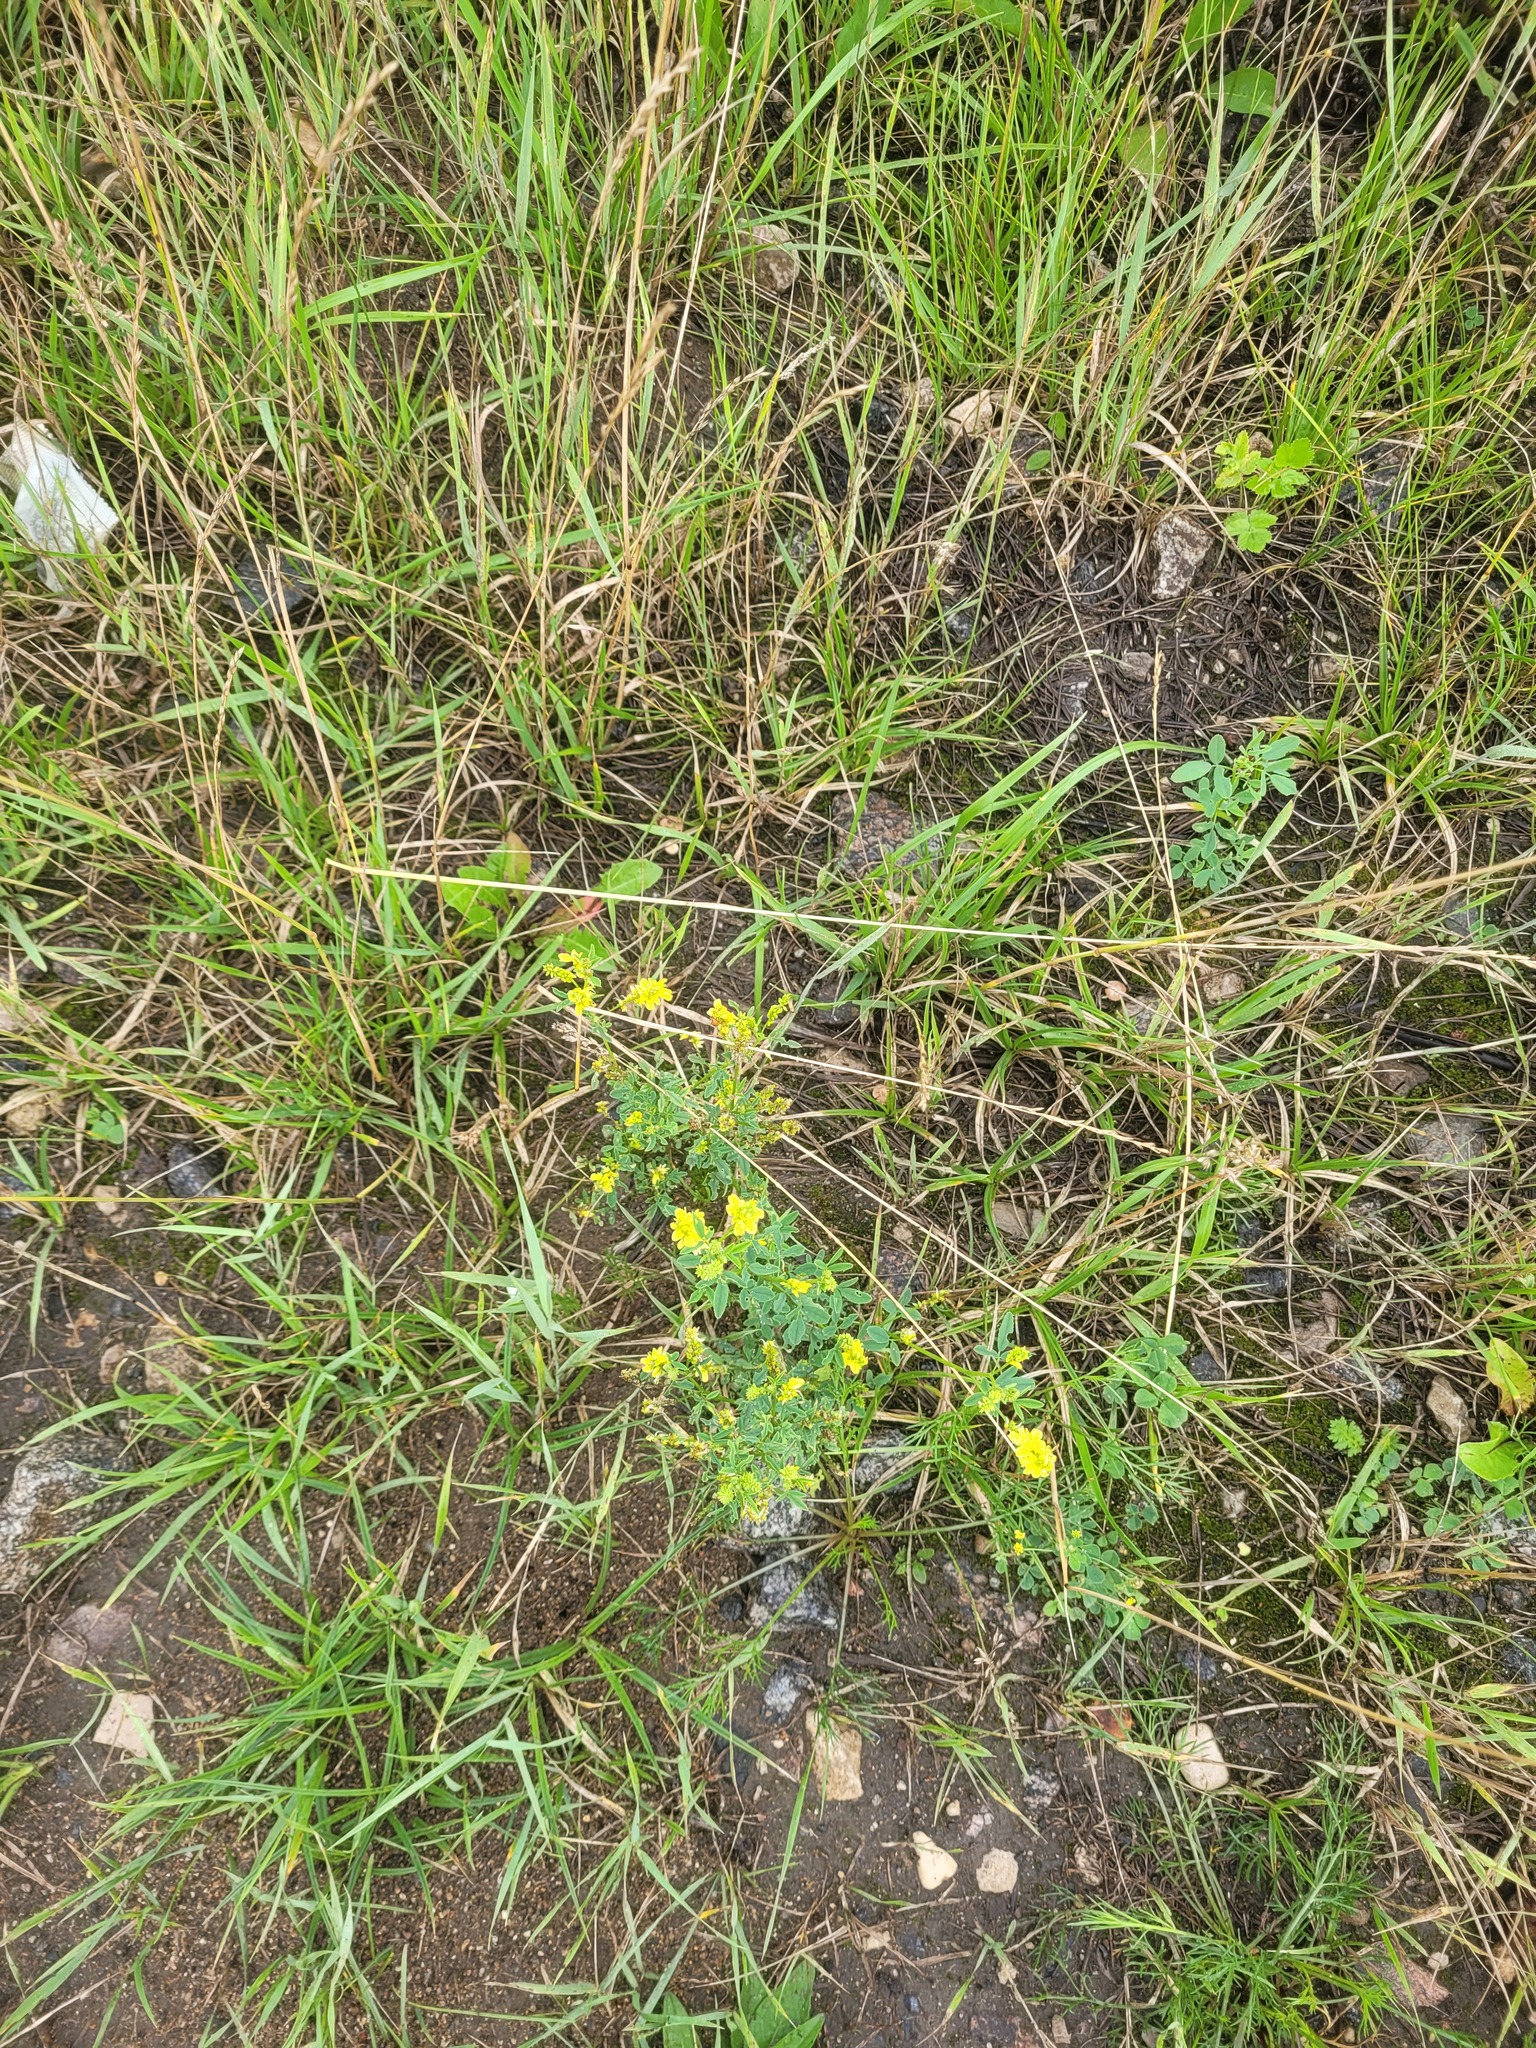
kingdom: Plantae
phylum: Tracheophyta
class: Magnoliopsida
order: Fabales
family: Fabaceae
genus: Melilotus
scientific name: Melilotus officinalis
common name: Sweetclover
